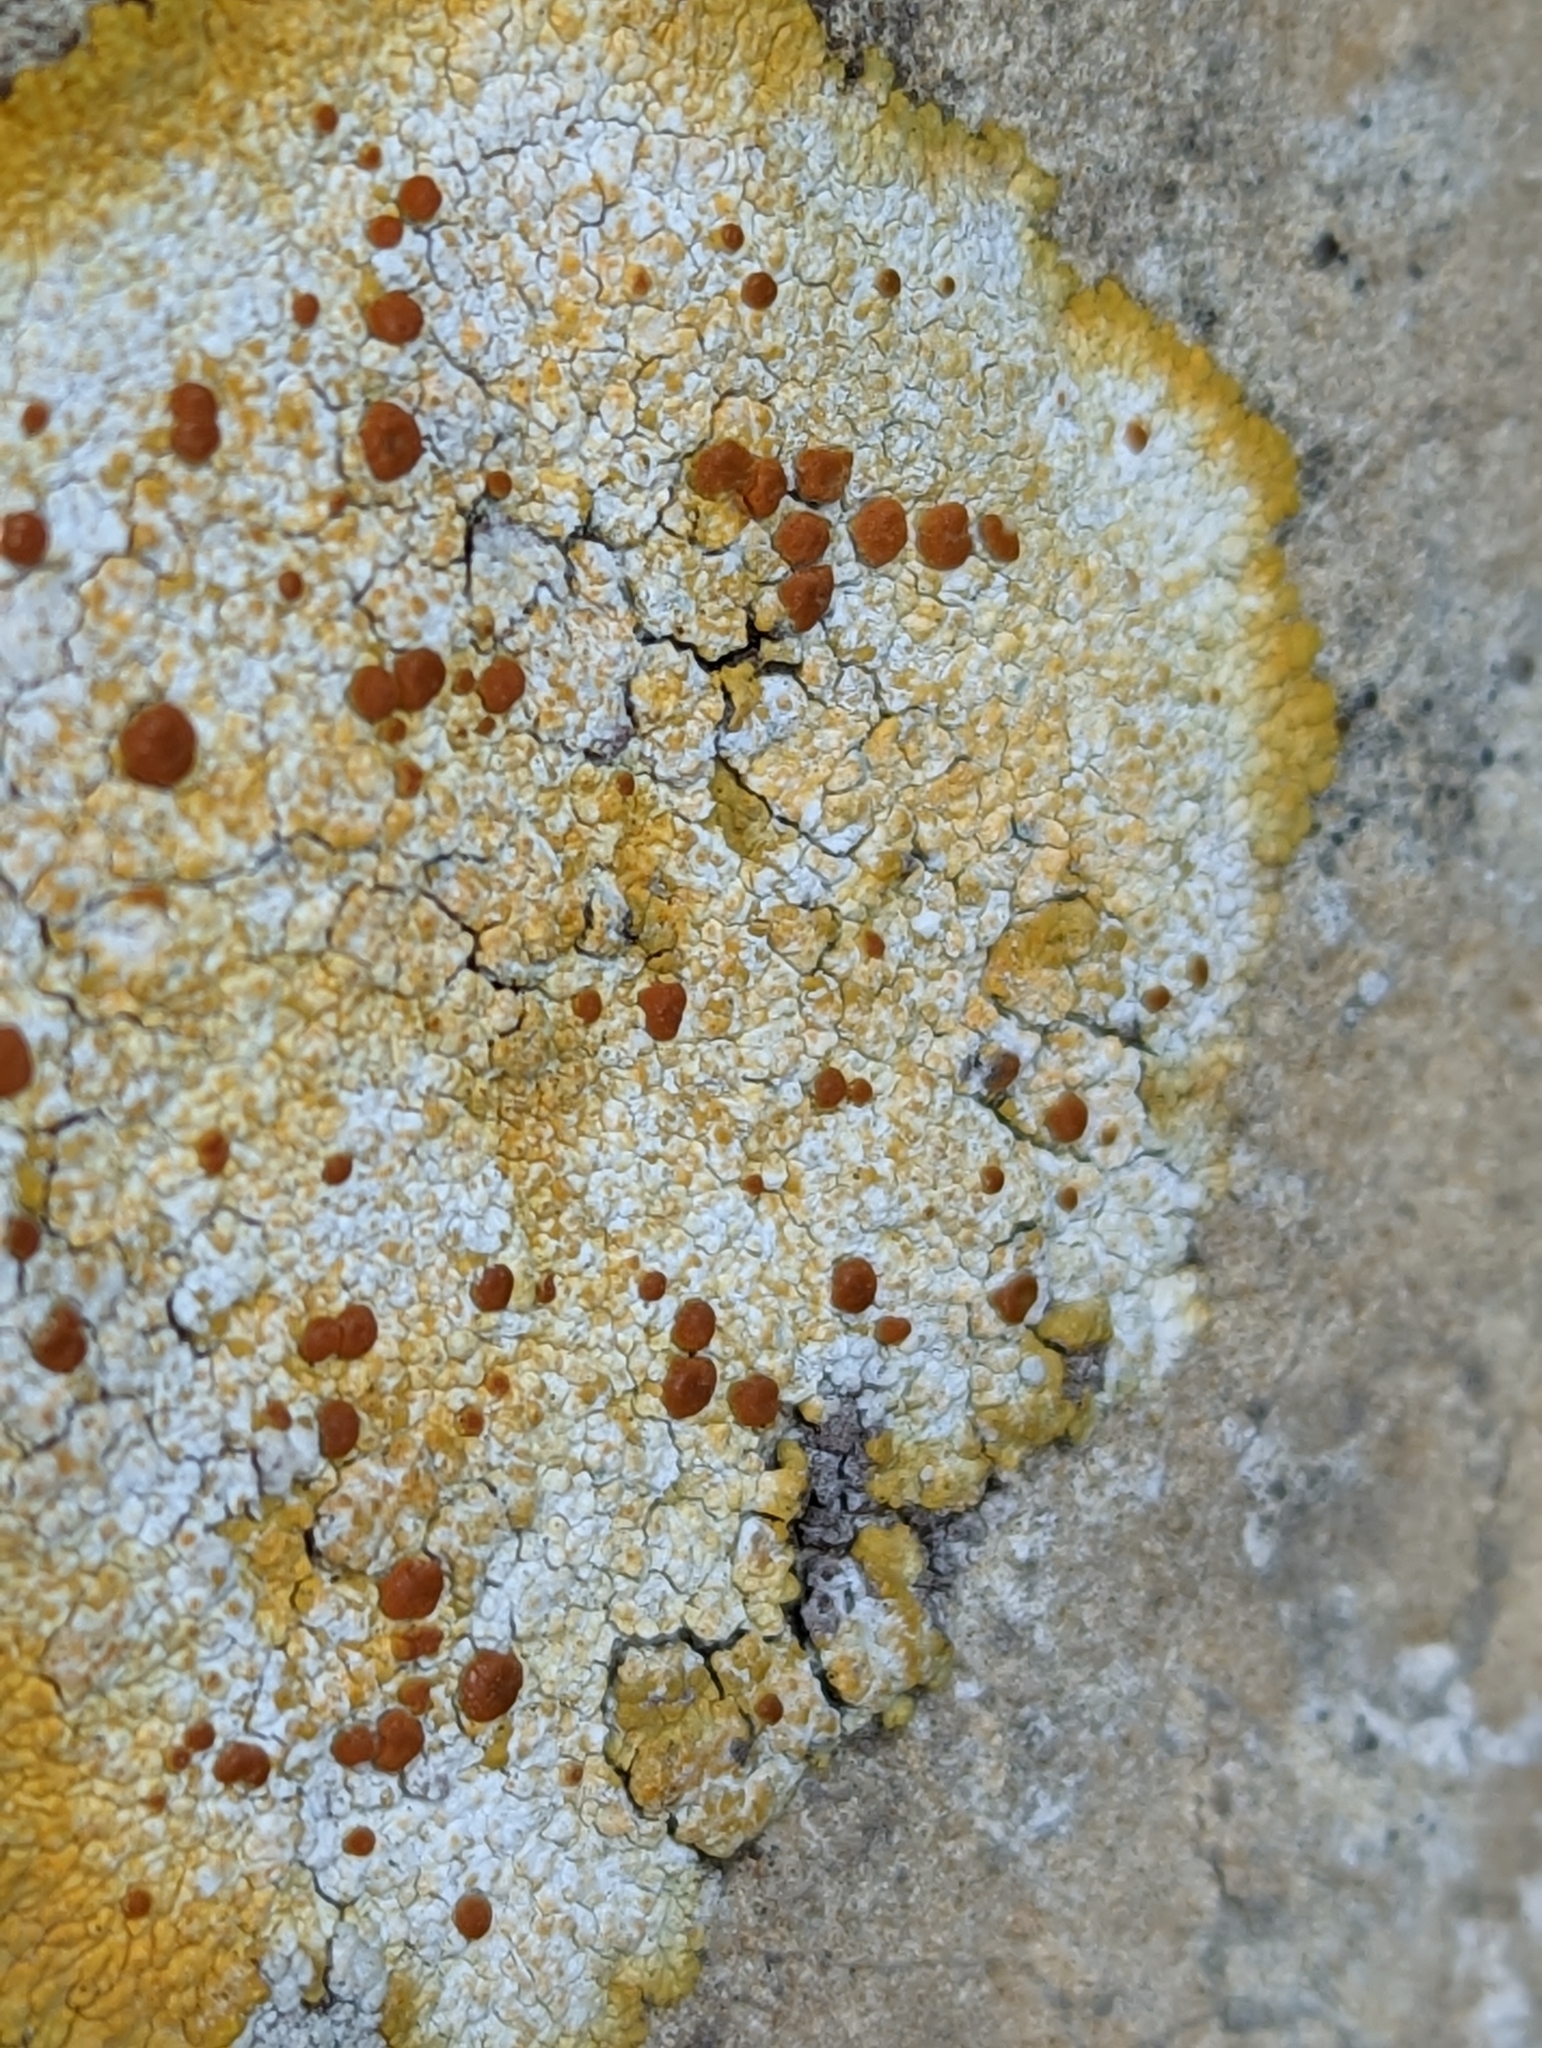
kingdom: Fungi
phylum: Ascomycota
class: Lecanoromycetes
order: Teloschistales
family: Teloschistaceae
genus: Variospora
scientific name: Variospora flavescens
